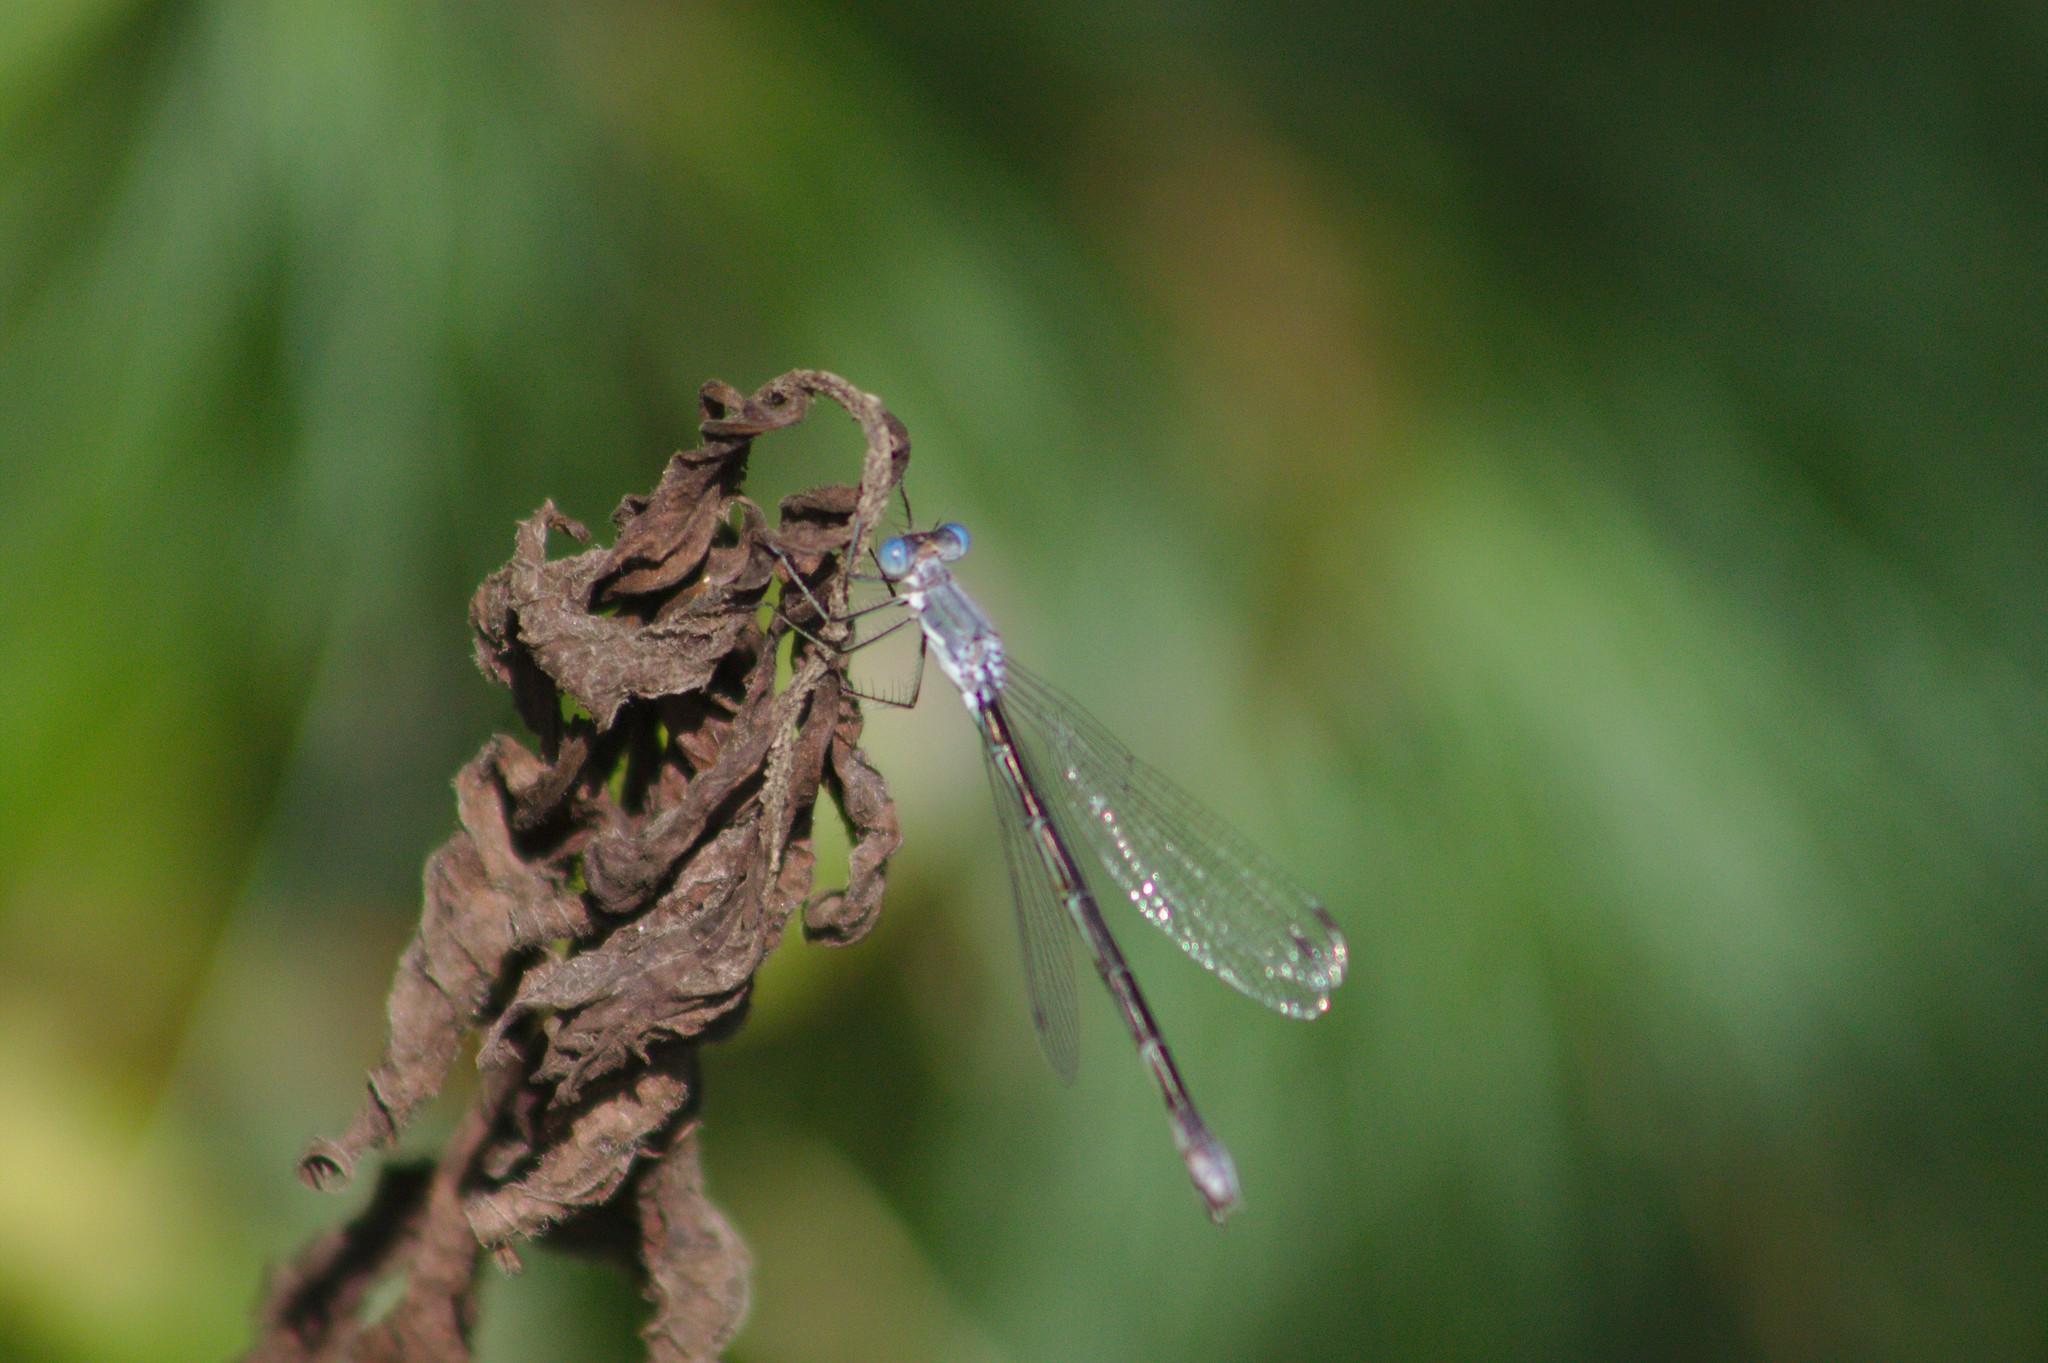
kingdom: Animalia
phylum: Arthropoda
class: Insecta
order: Odonata
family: Lestidae
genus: Lestes
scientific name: Lestes
